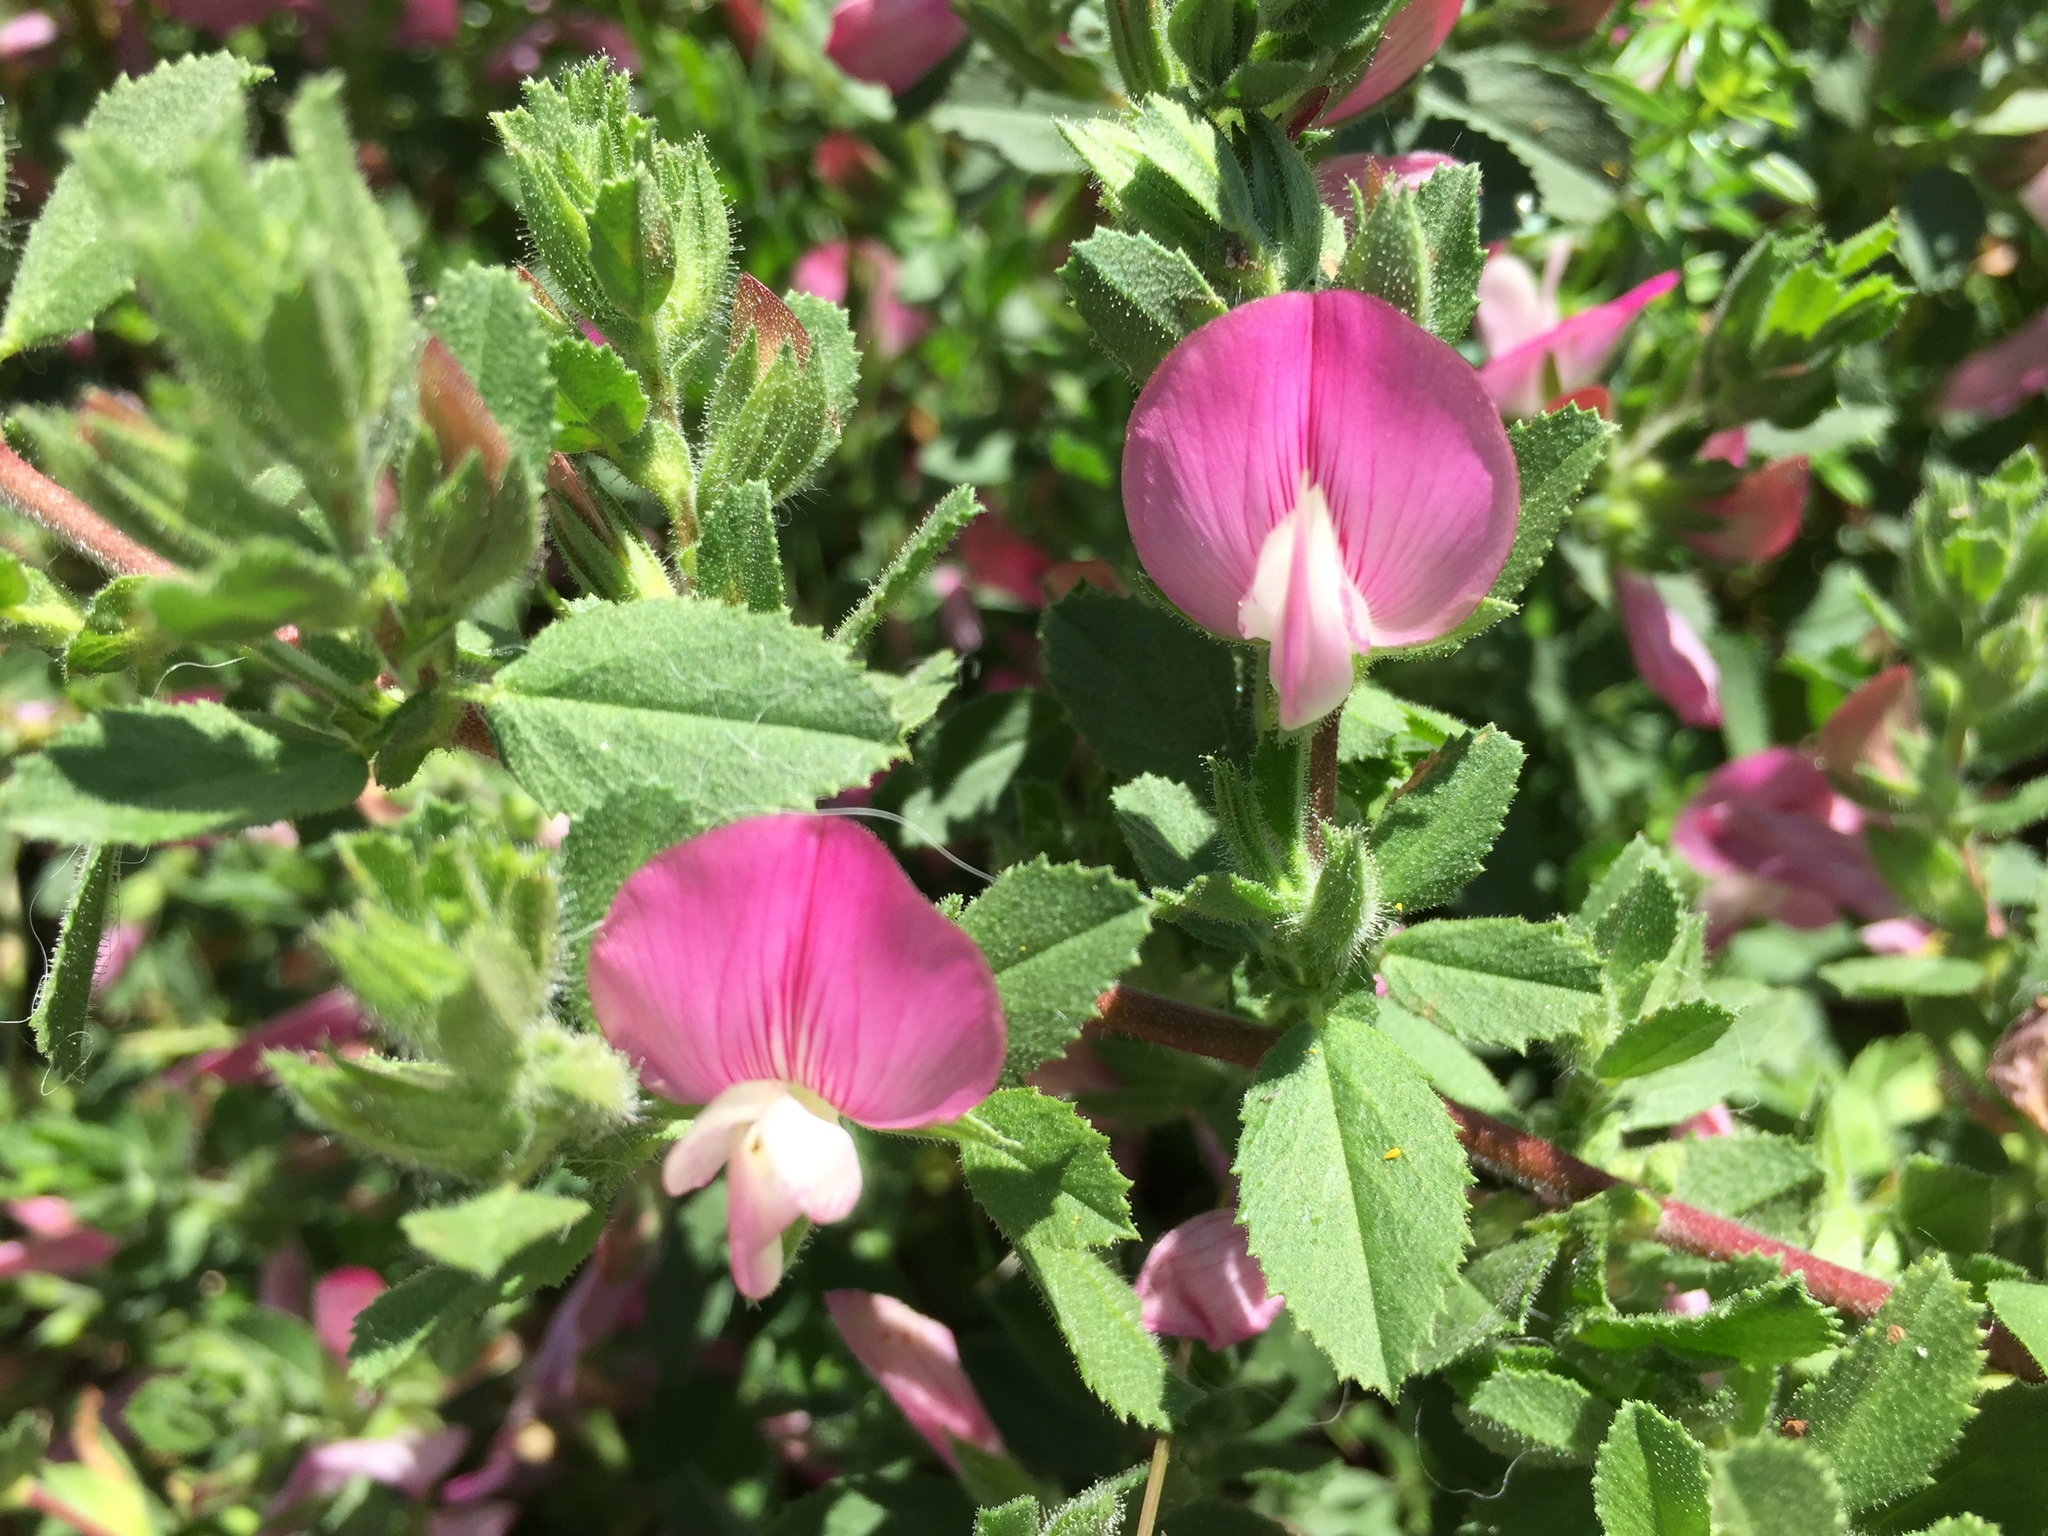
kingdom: Plantae
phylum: Tracheophyta
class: Magnoliopsida
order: Fabales
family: Fabaceae
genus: Ononis
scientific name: Ononis spinosa
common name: Spiny restharrow
